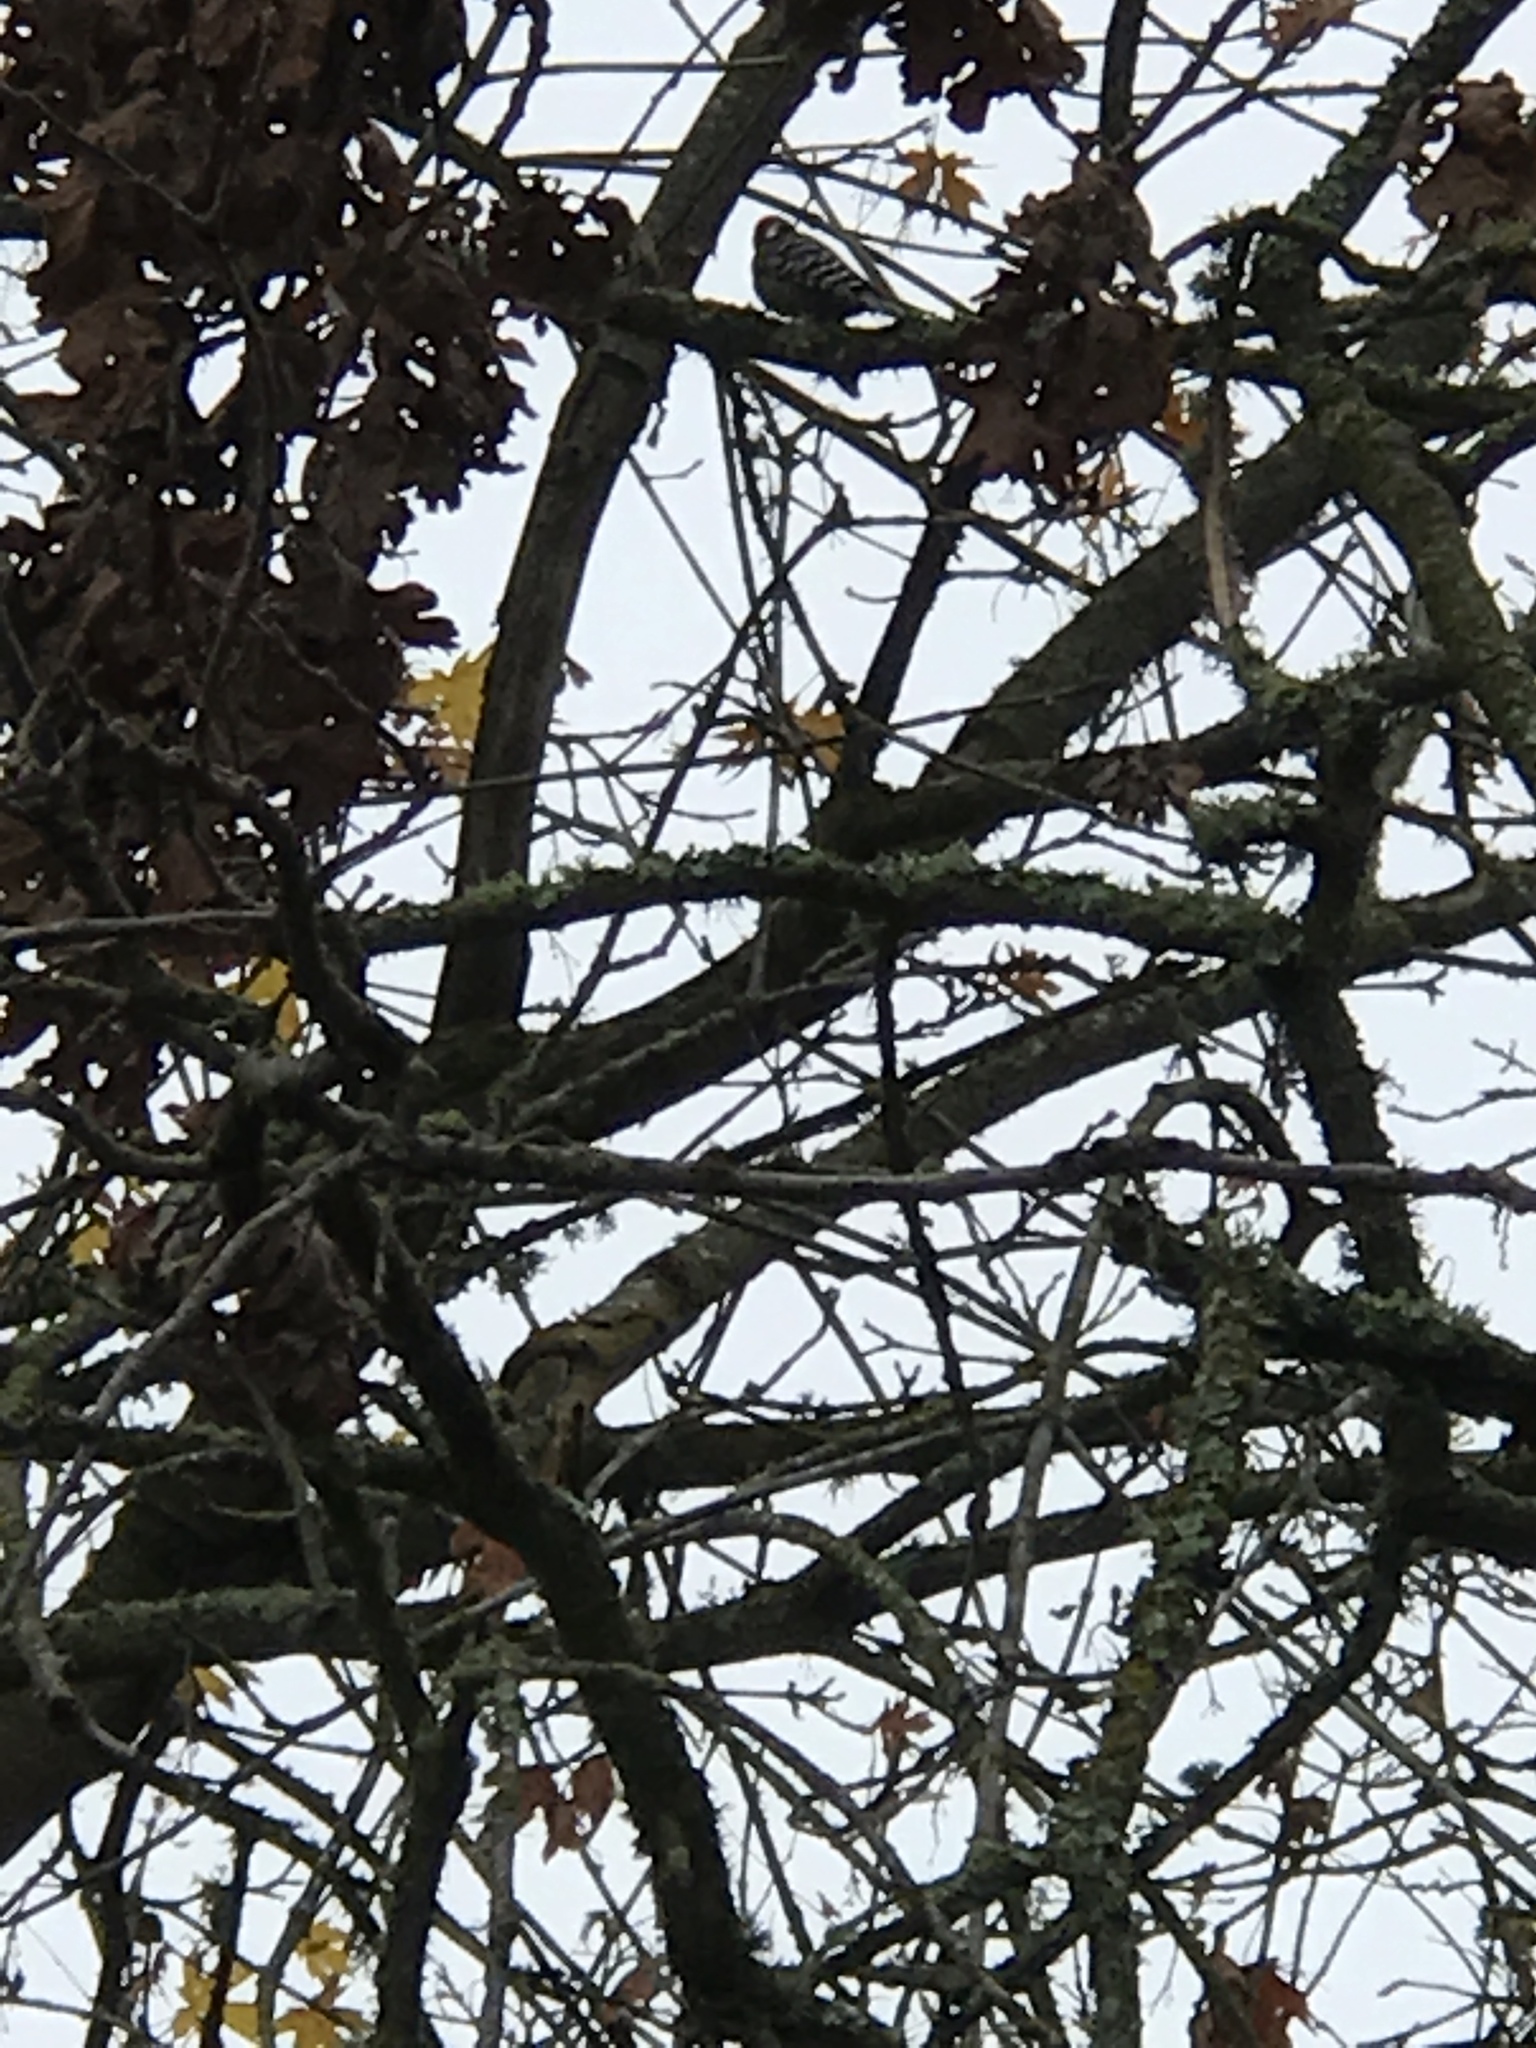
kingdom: Animalia
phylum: Chordata
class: Aves
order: Piciformes
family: Picidae
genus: Dryobates
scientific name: Dryobates nuttallii
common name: Nuttall's woodpecker
